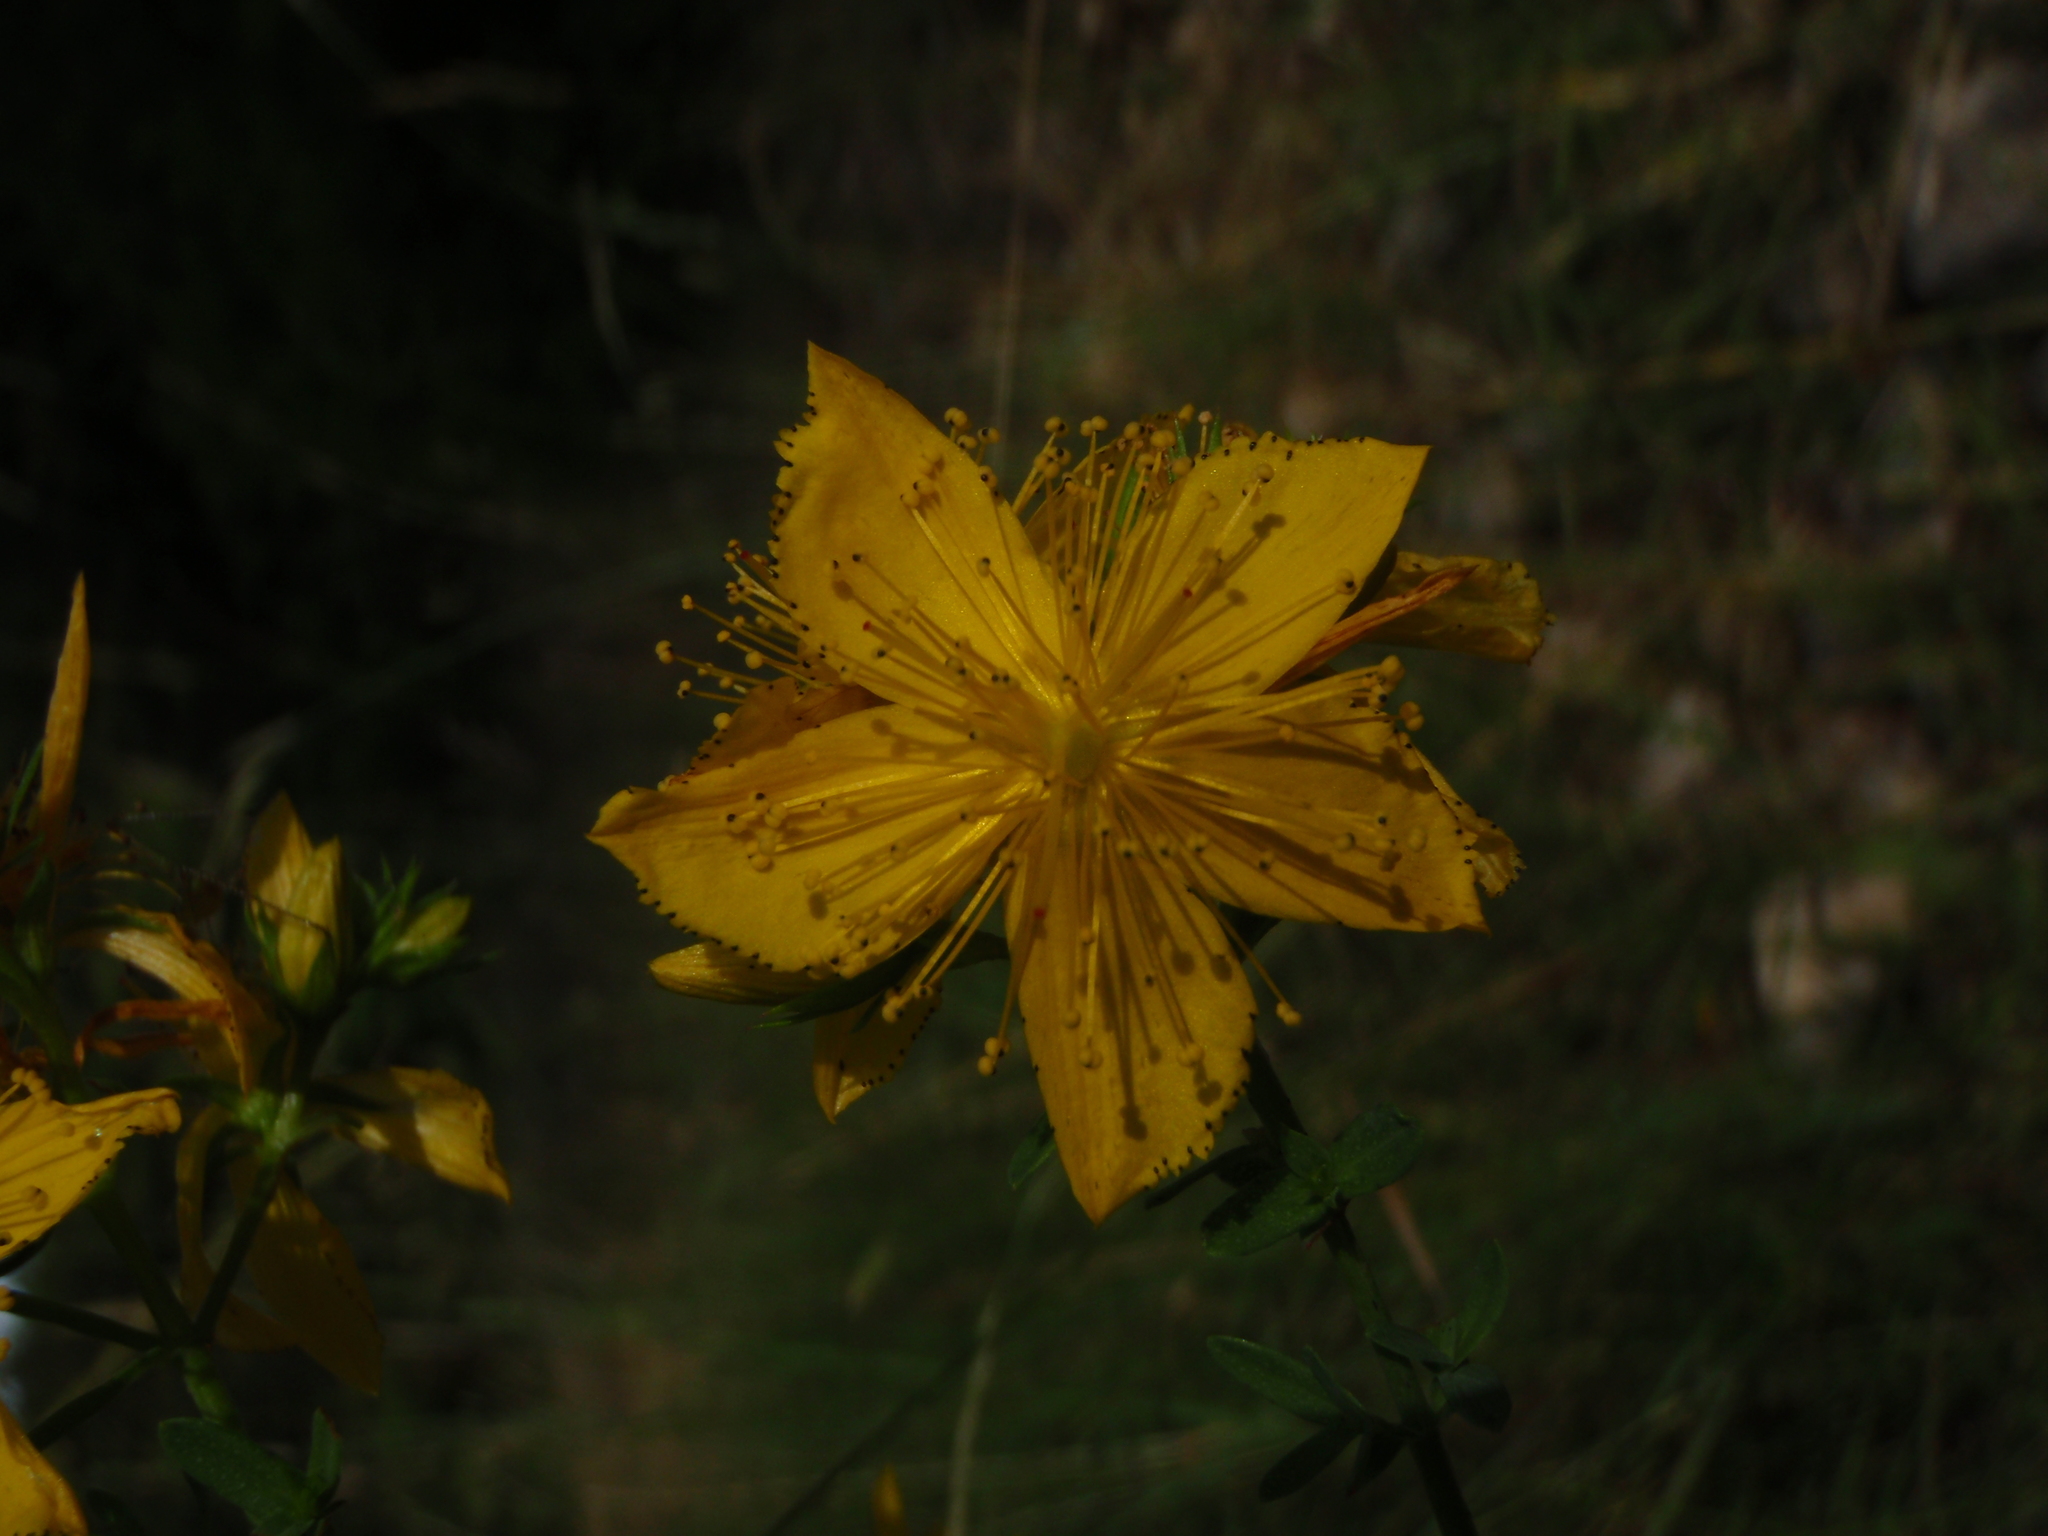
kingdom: Plantae
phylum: Tracheophyta
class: Magnoliopsida
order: Malpighiales
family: Hypericaceae
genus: Hypericum
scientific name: Hypericum perforatum
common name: Common st. johnswort
